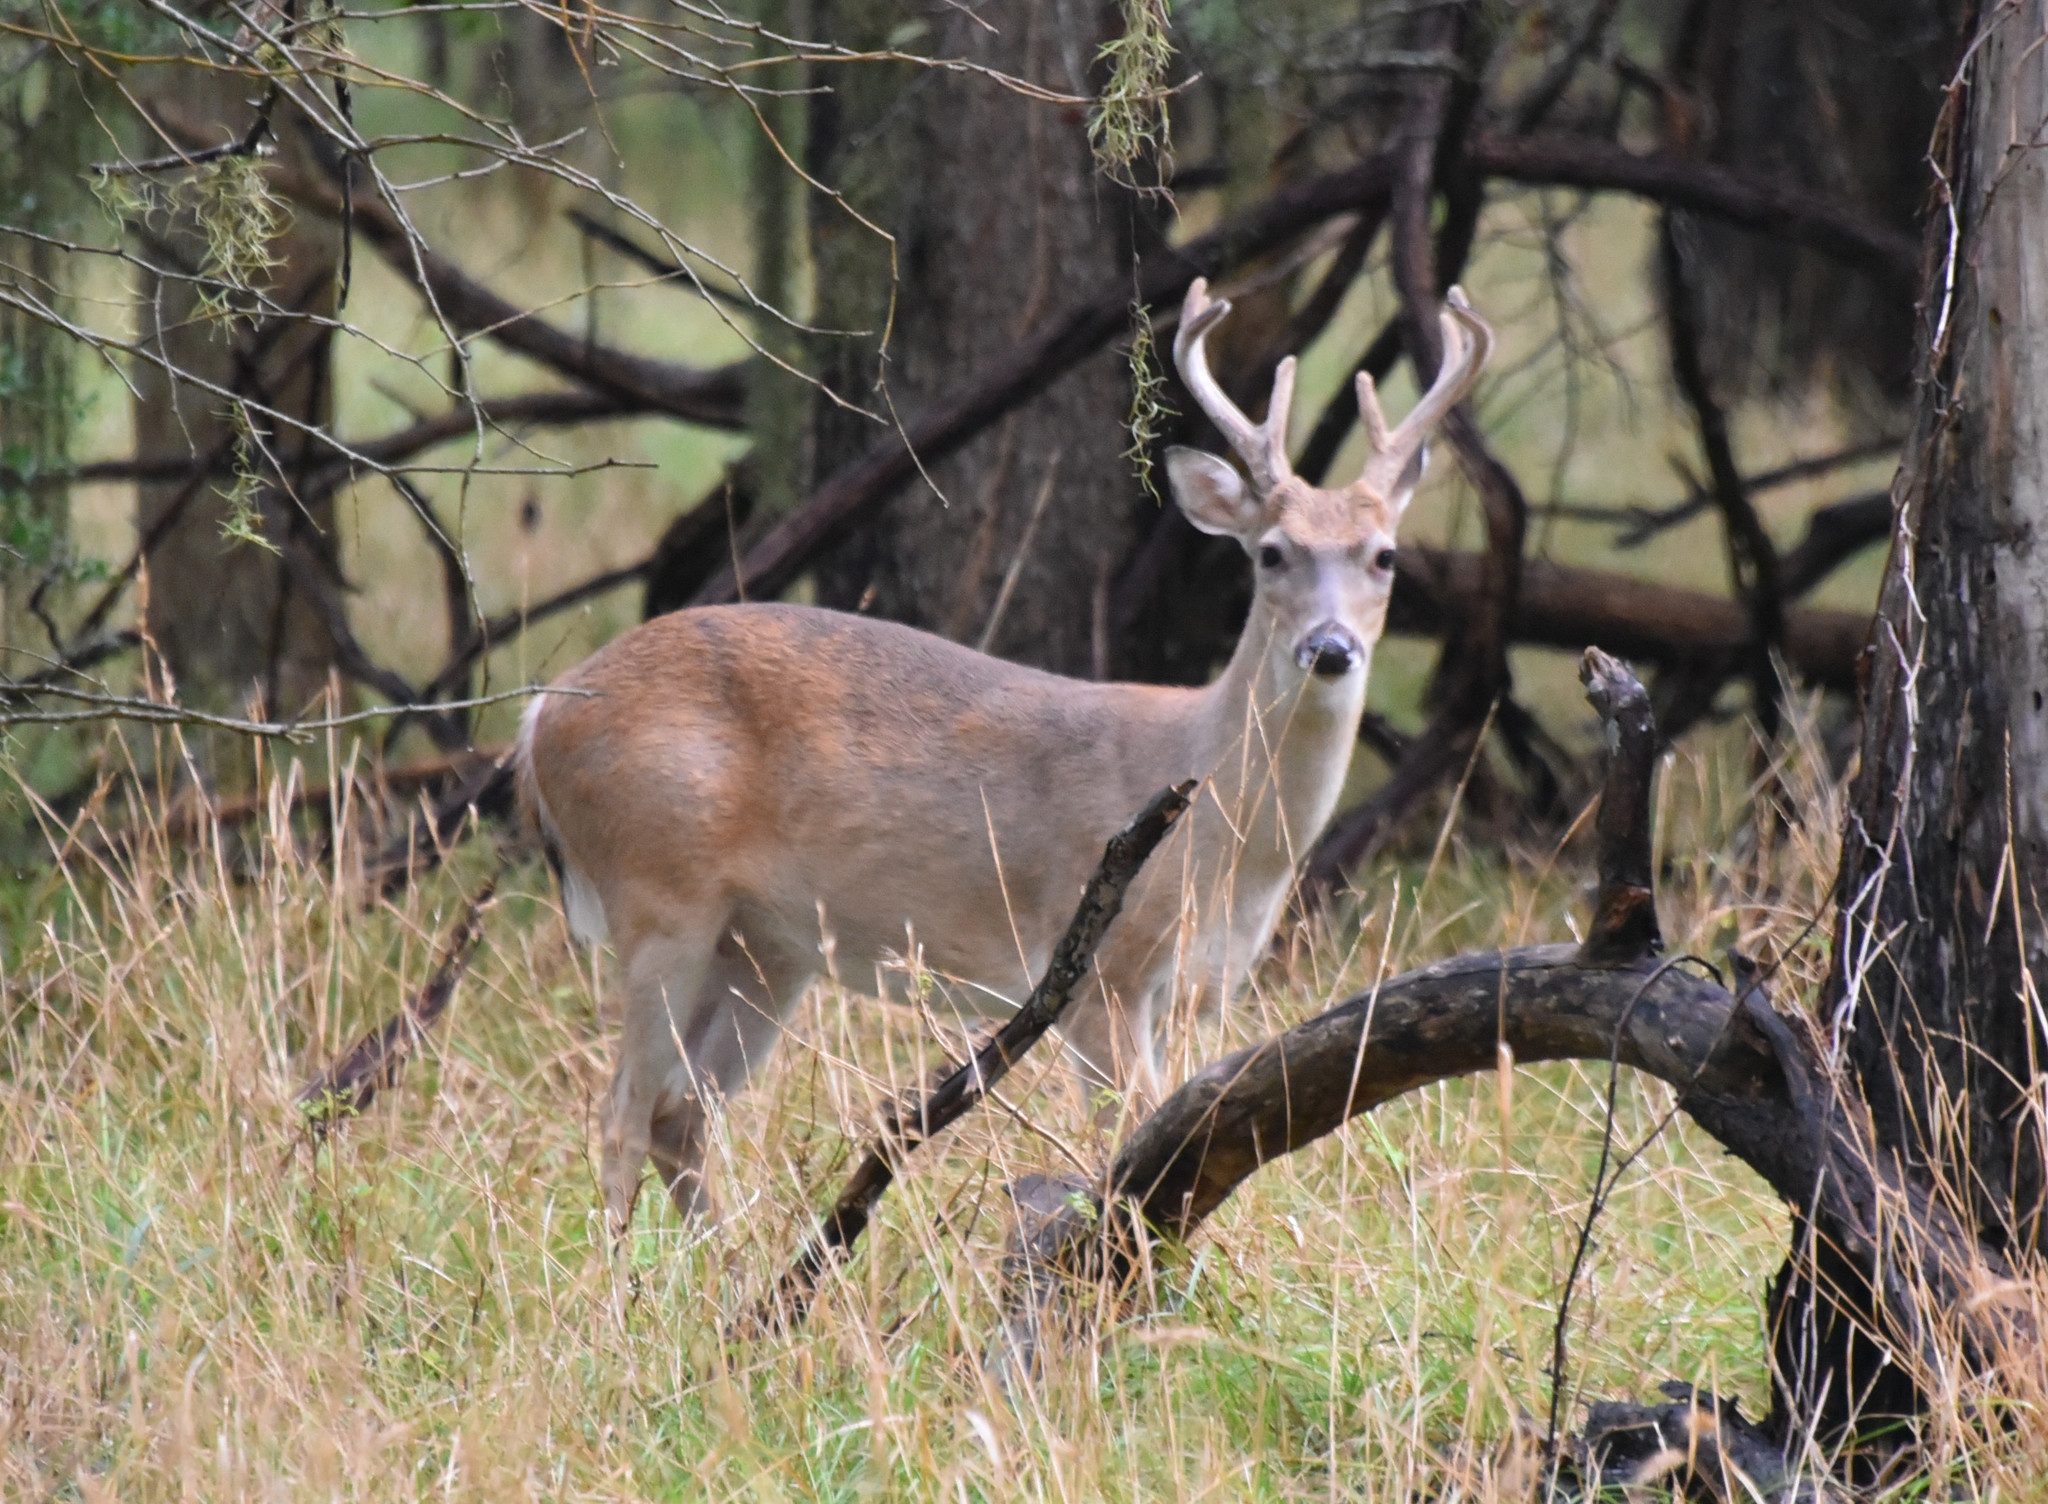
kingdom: Animalia
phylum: Chordata
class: Mammalia
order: Artiodactyla
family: Cervidae
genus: Odocoileus
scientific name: Odocoileus virginianus
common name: White-tailed deer
